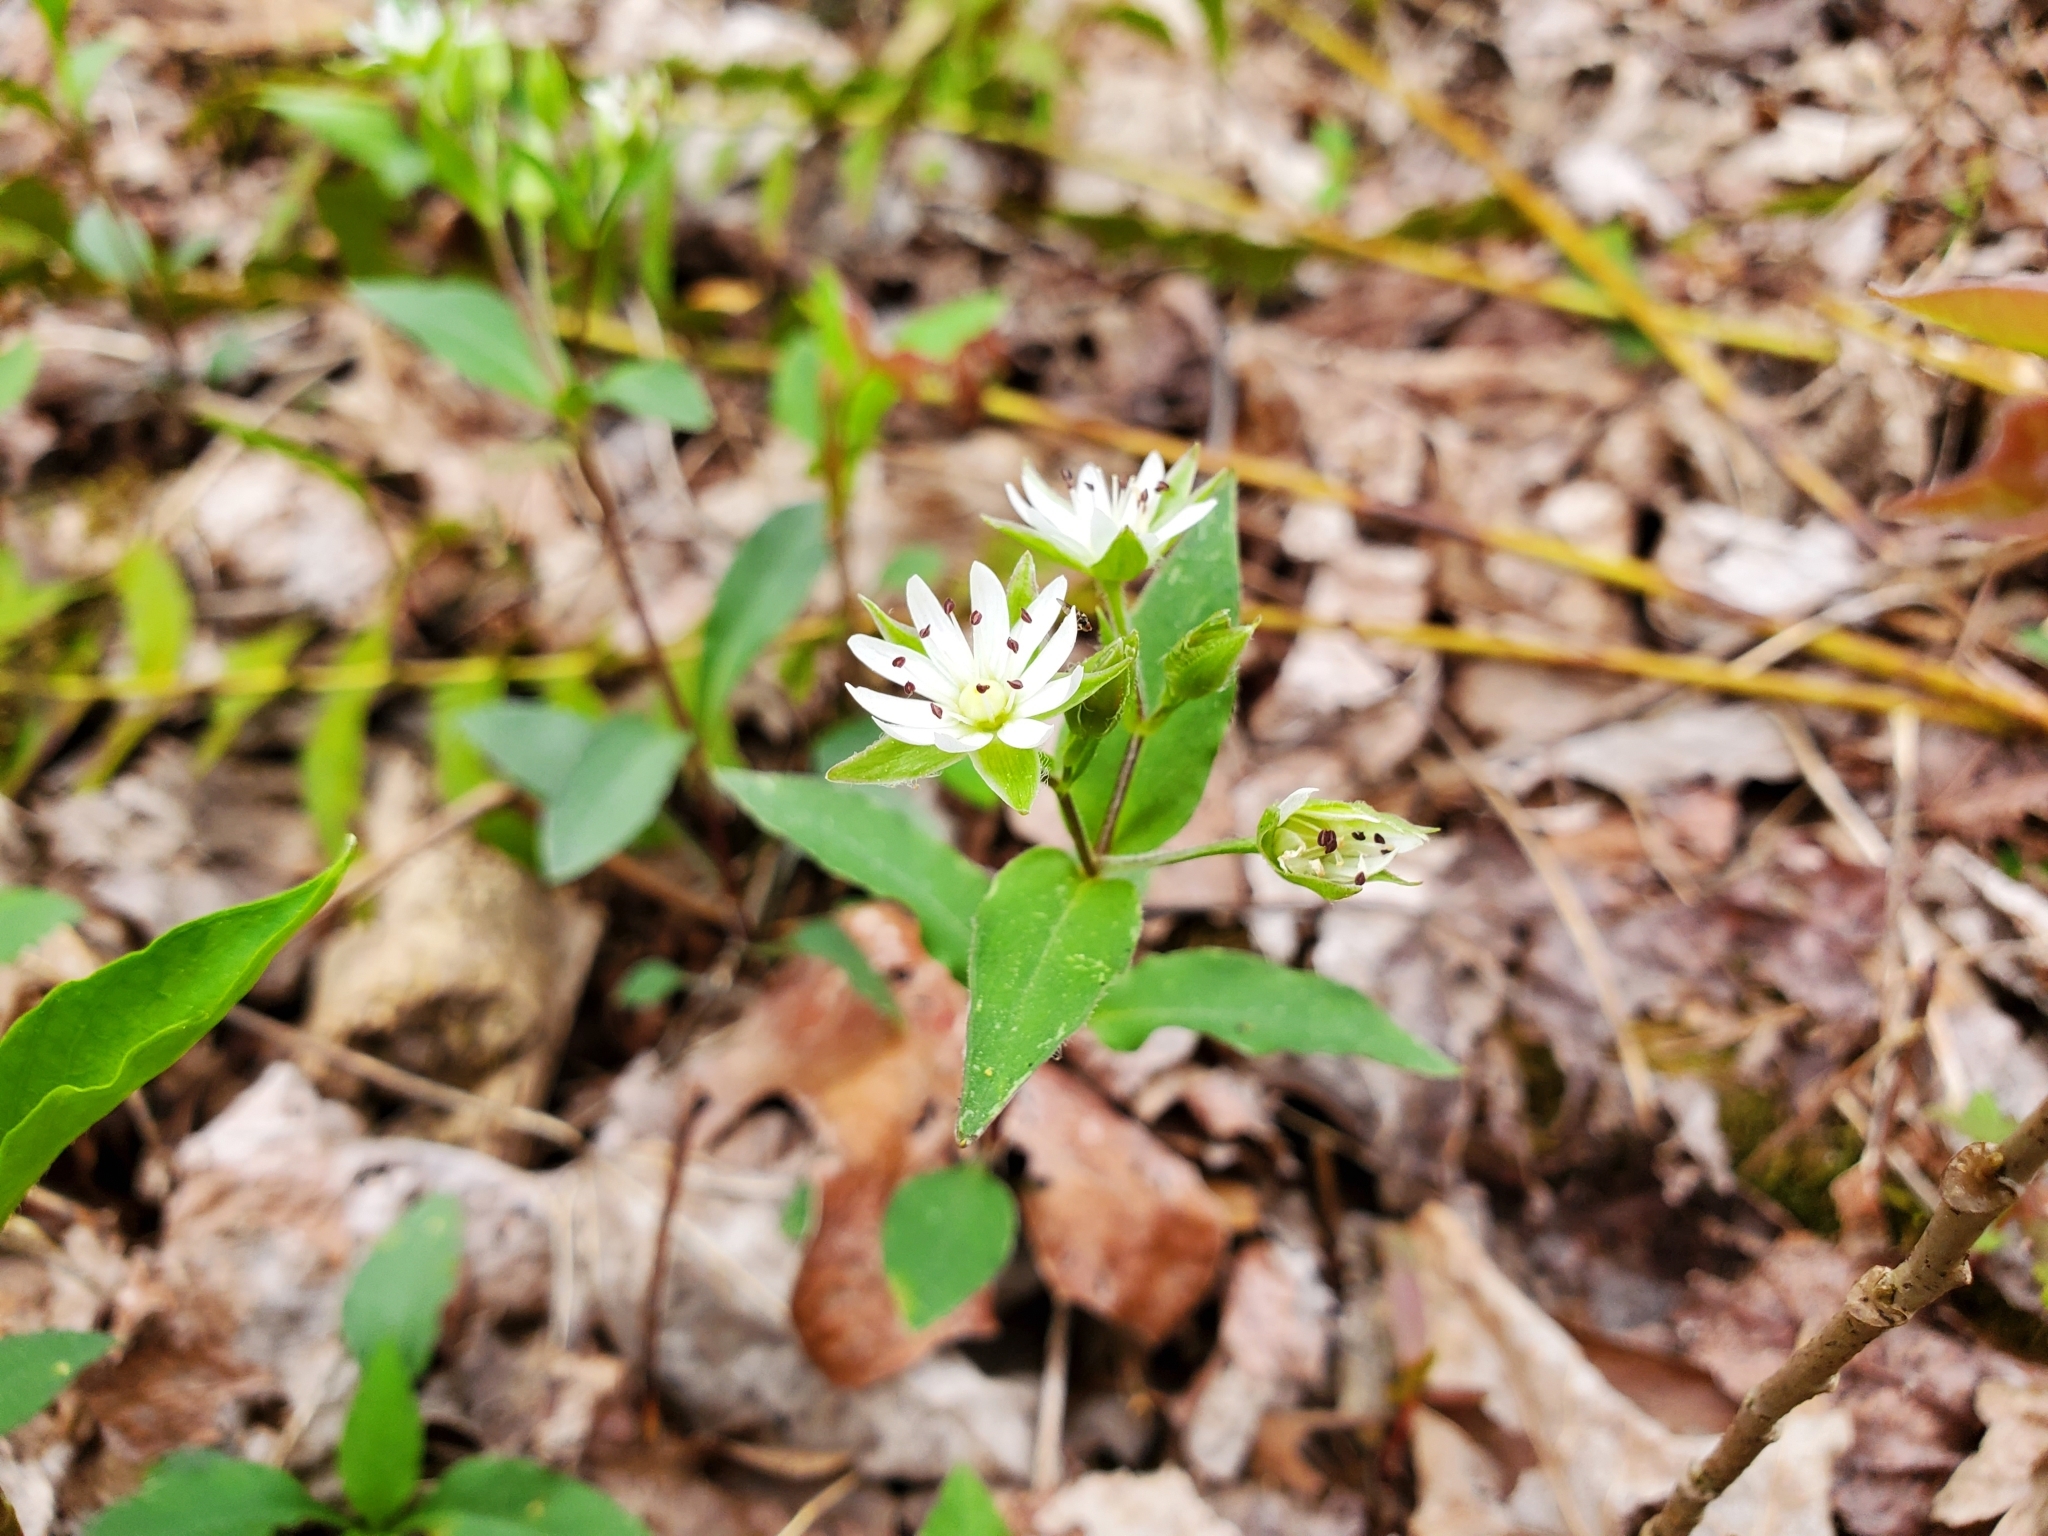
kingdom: Plantae
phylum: Tracheophyta
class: Magnoliopsida
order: Caryophyllales
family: Caryophyllaceae
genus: Stellaria
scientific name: Stellaria pubera
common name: Star chickweed
